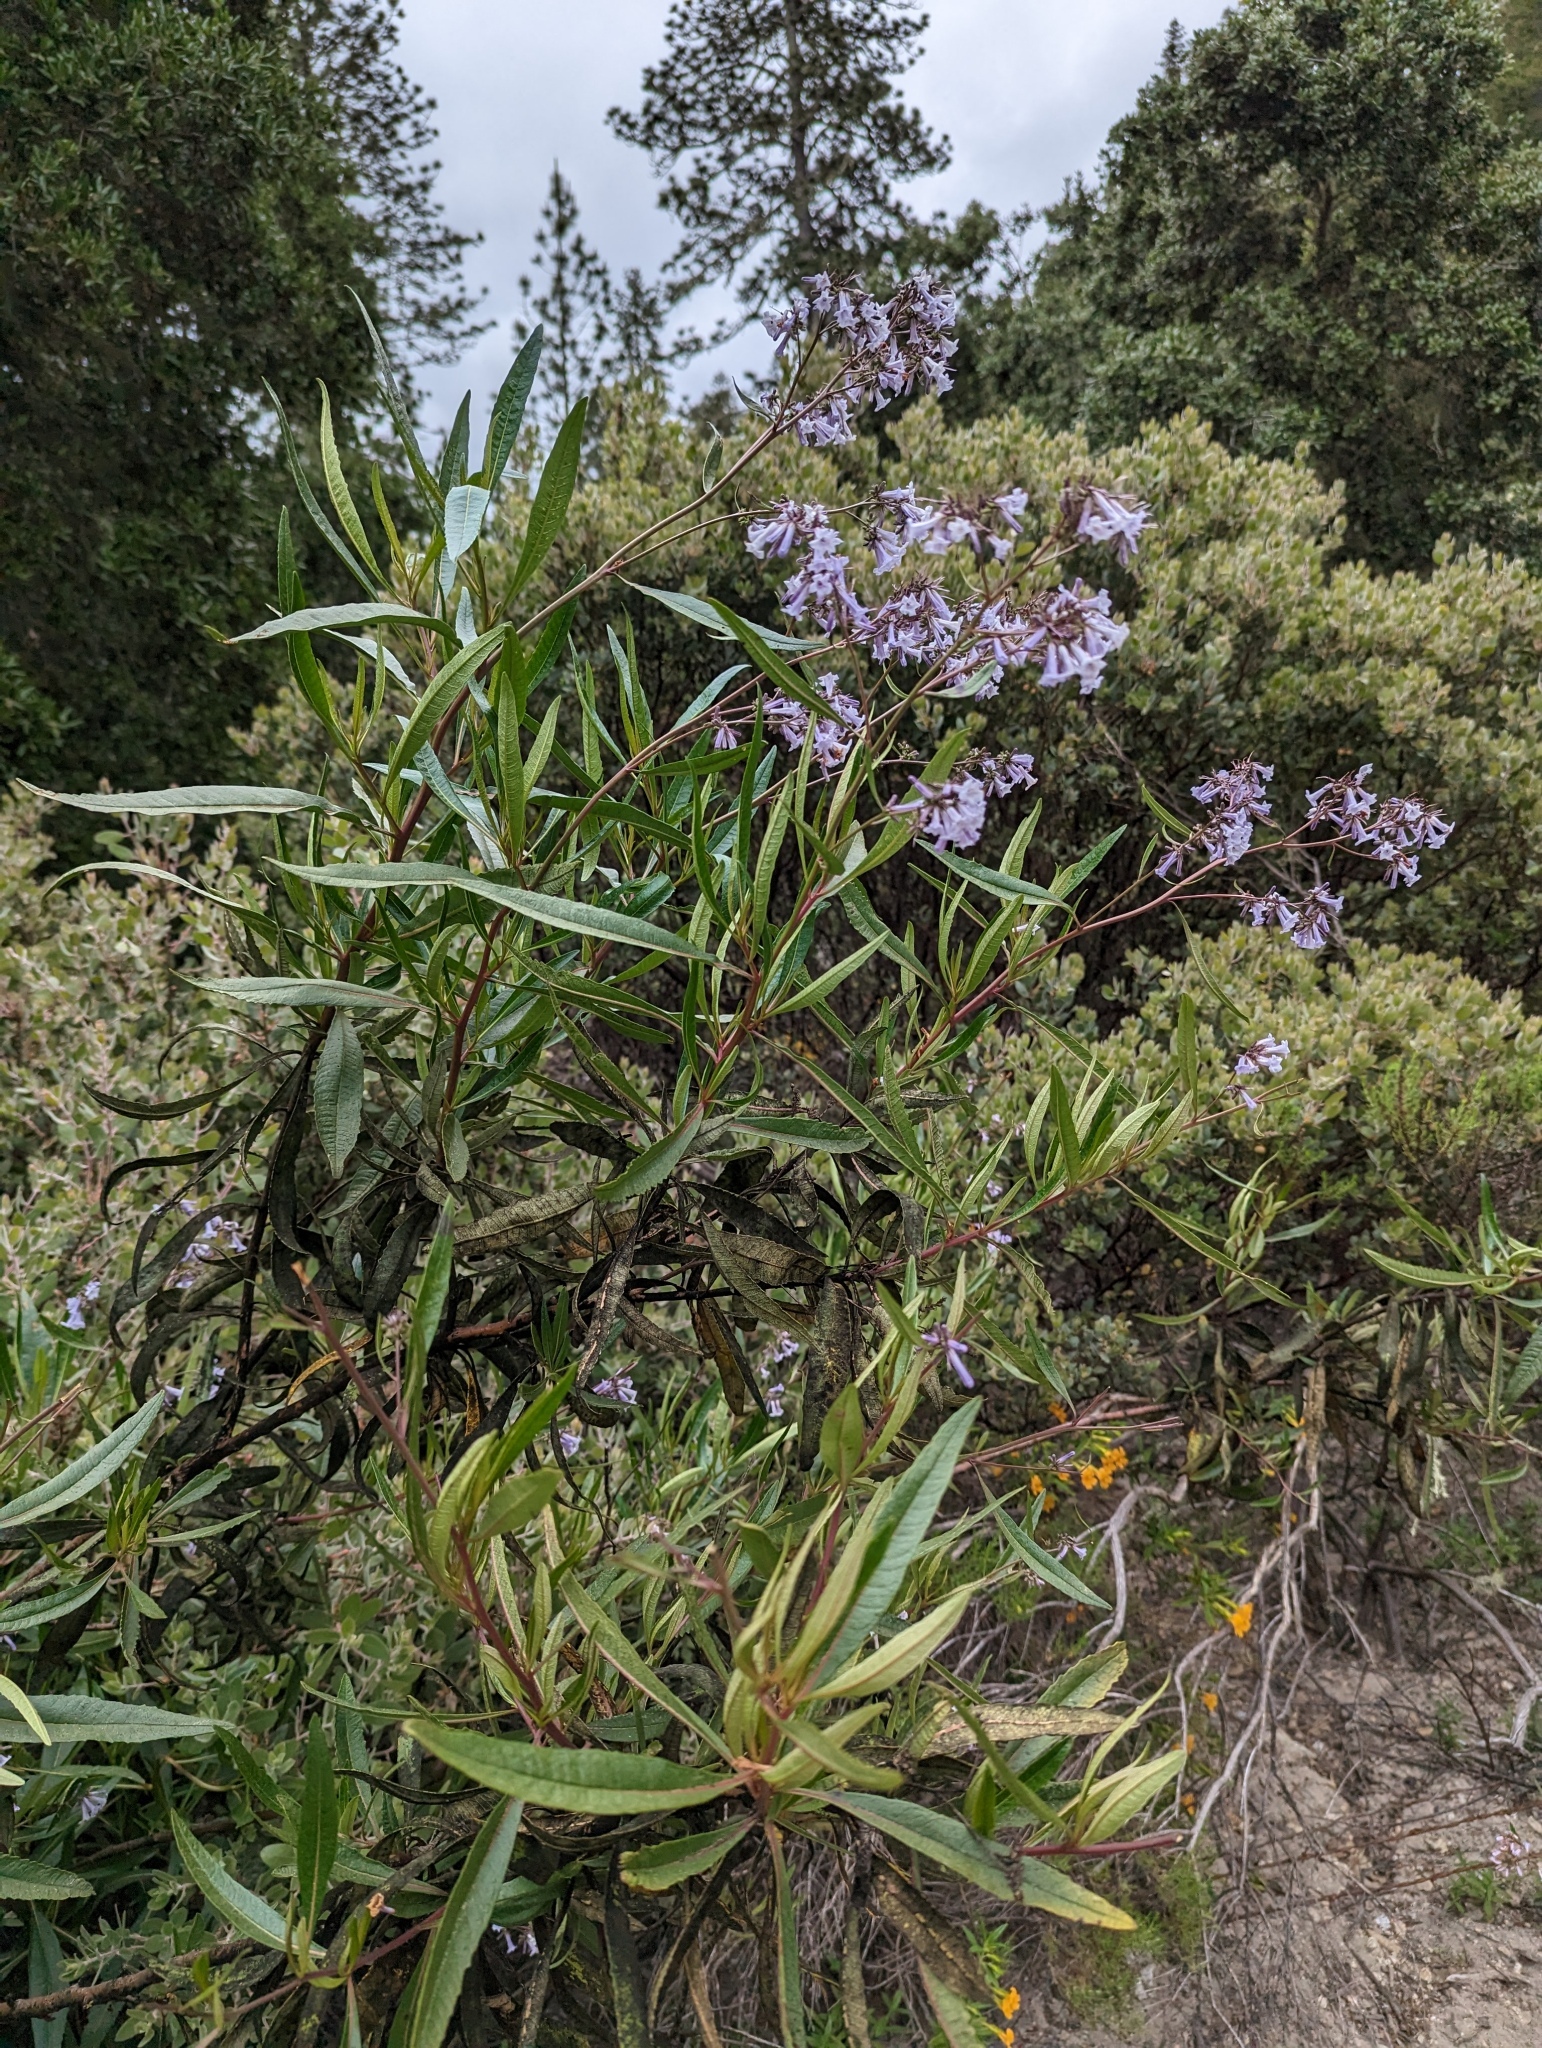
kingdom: Plantae
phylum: Tracheophyta
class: Magnoliopsida
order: Boraginales
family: Namaceae
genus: Eriodictyon
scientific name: Eriodictyon californicum
